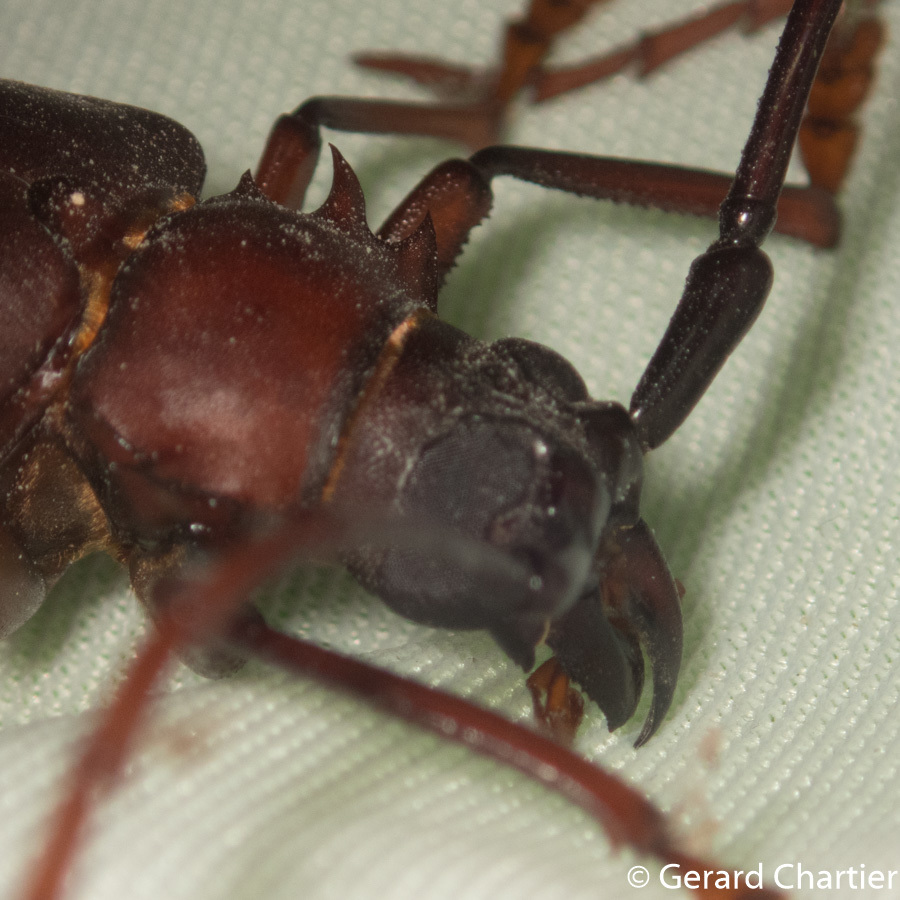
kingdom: Animalia
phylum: Arthropoda
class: Insecta
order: Coleoptera
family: Cerambycidae
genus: Dorysthenes
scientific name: Dorysthenes granulosus
